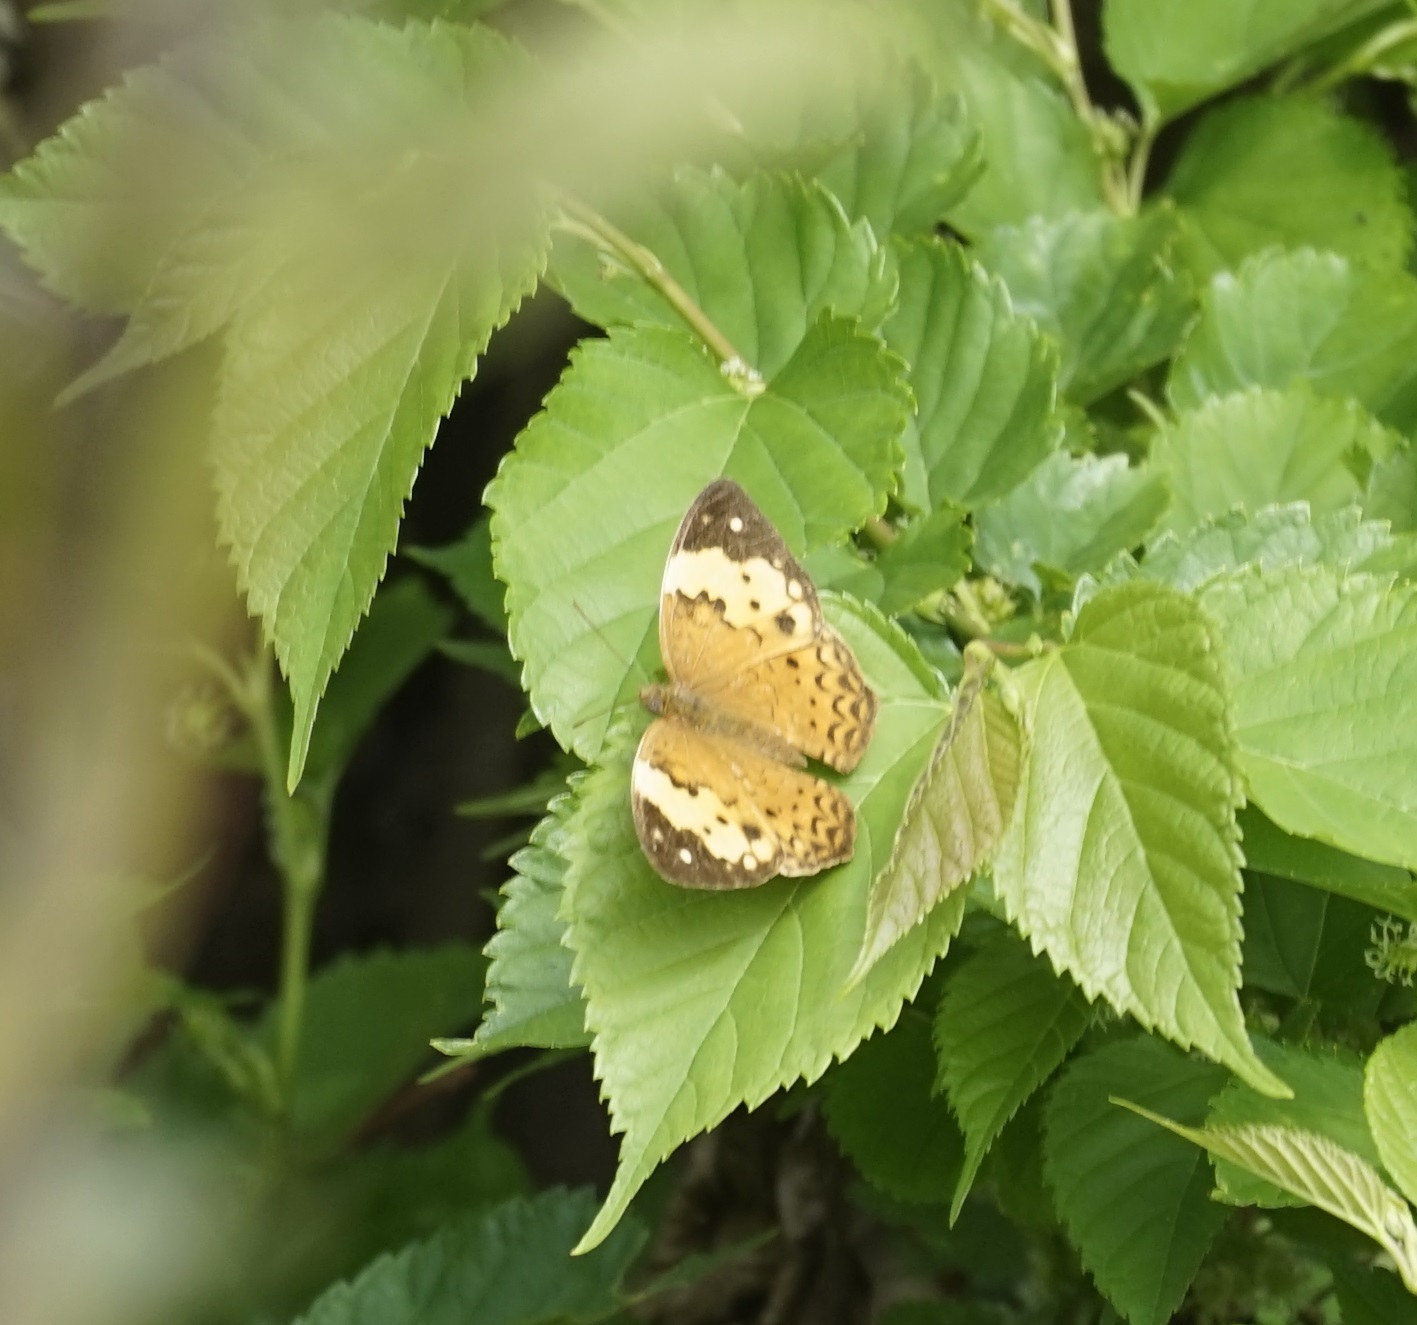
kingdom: Animalia
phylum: Arthropoda
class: Insecta
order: Lepidoptera
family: Nymphalidae
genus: Cupha
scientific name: Cupha erymanthis
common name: Rustic
